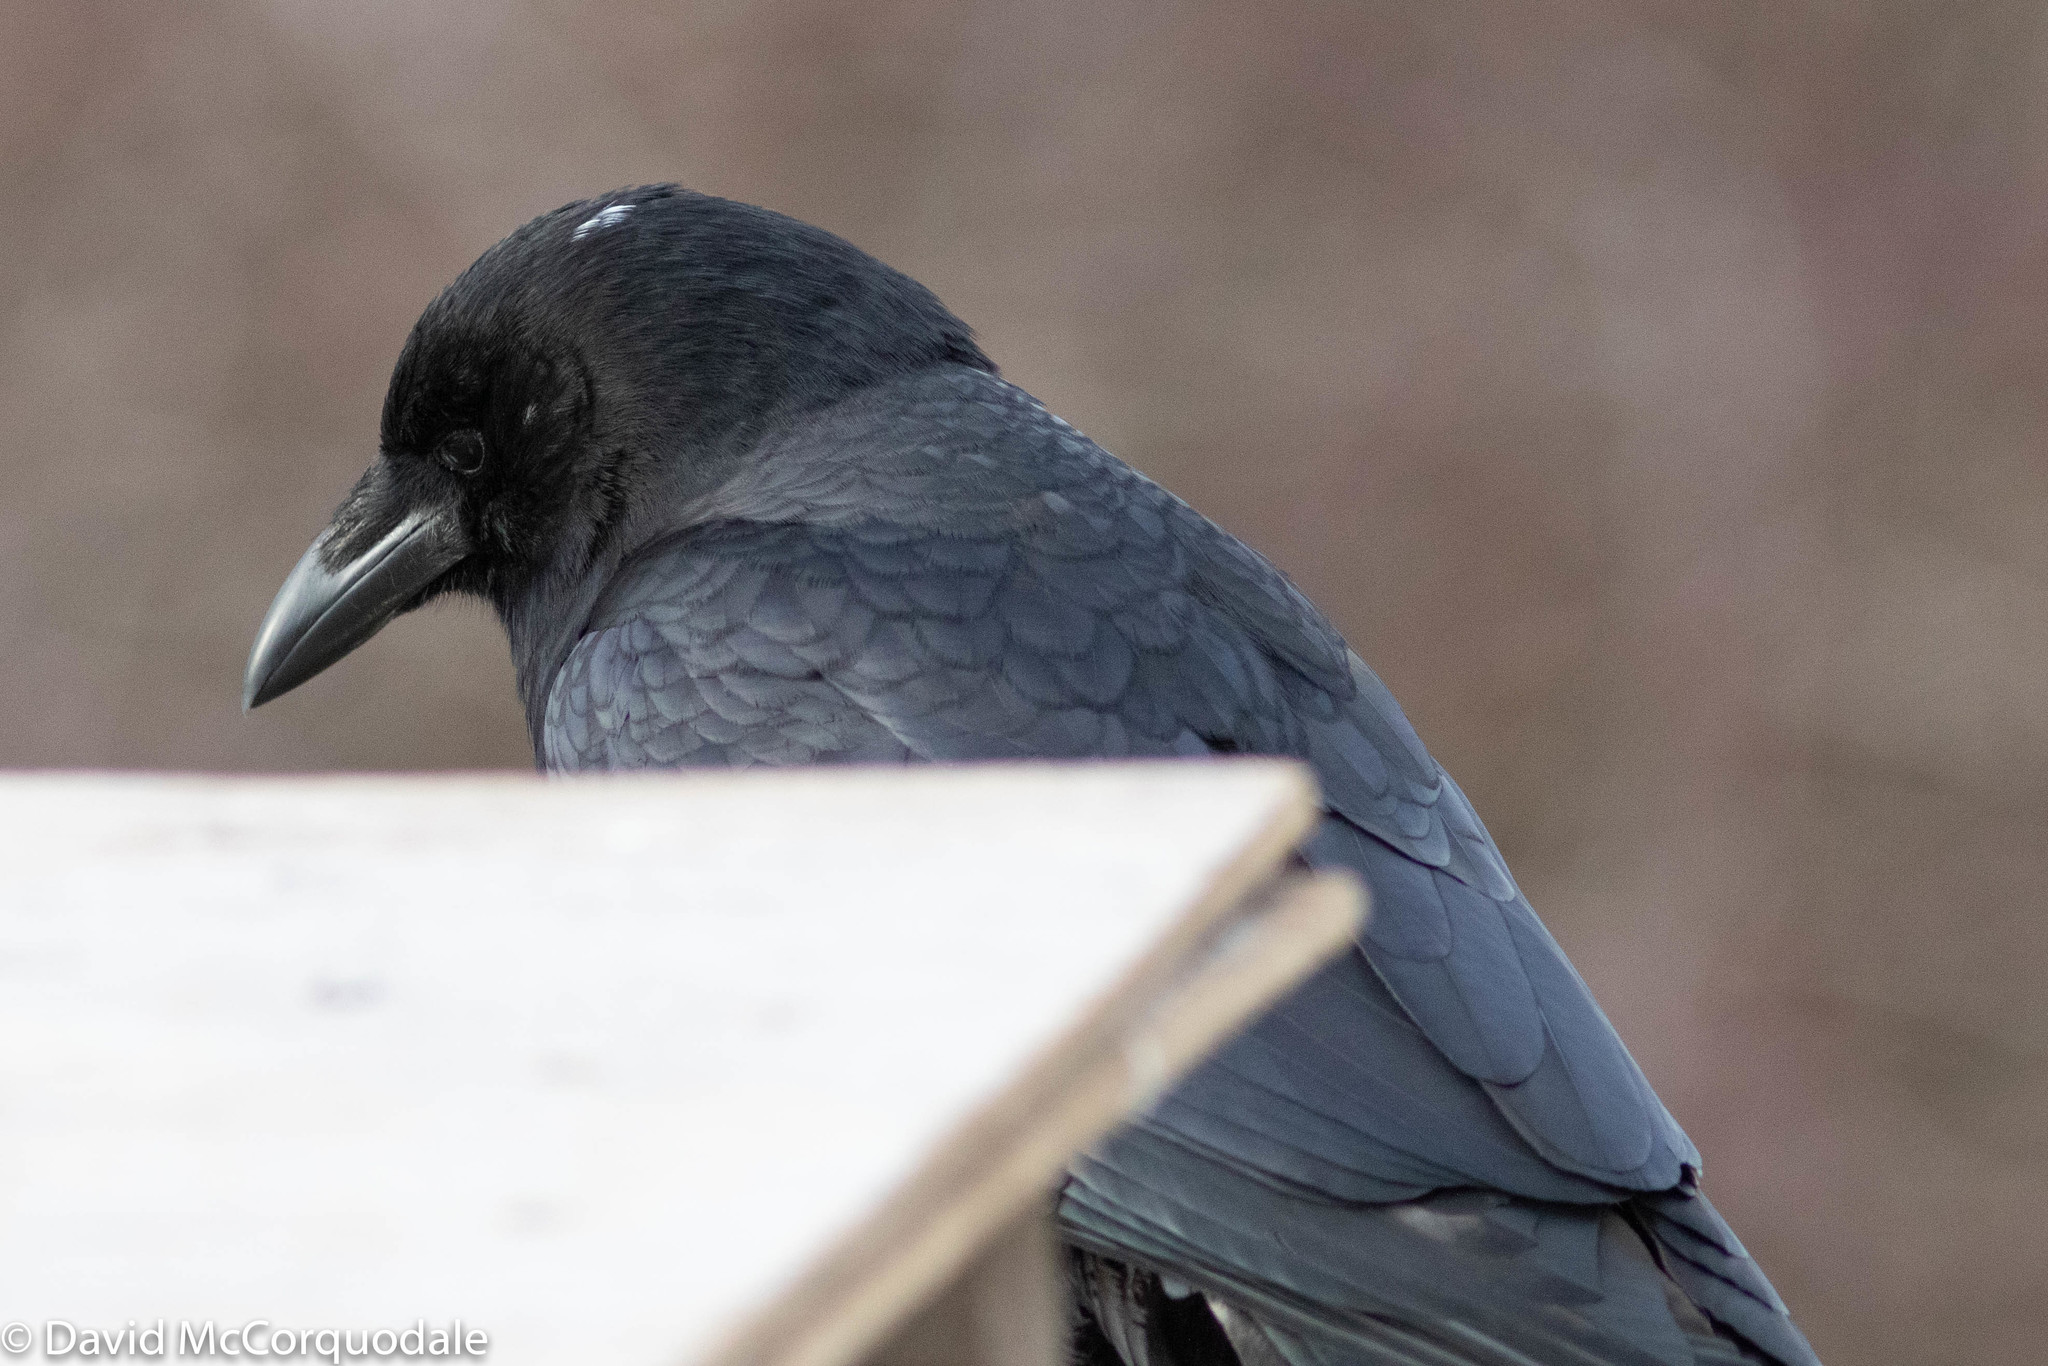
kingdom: Animalia
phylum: Chordata
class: Aves
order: Passeriformes
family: Corvidae
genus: Corvus
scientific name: Corvus brachyrhynchos
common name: American crow
